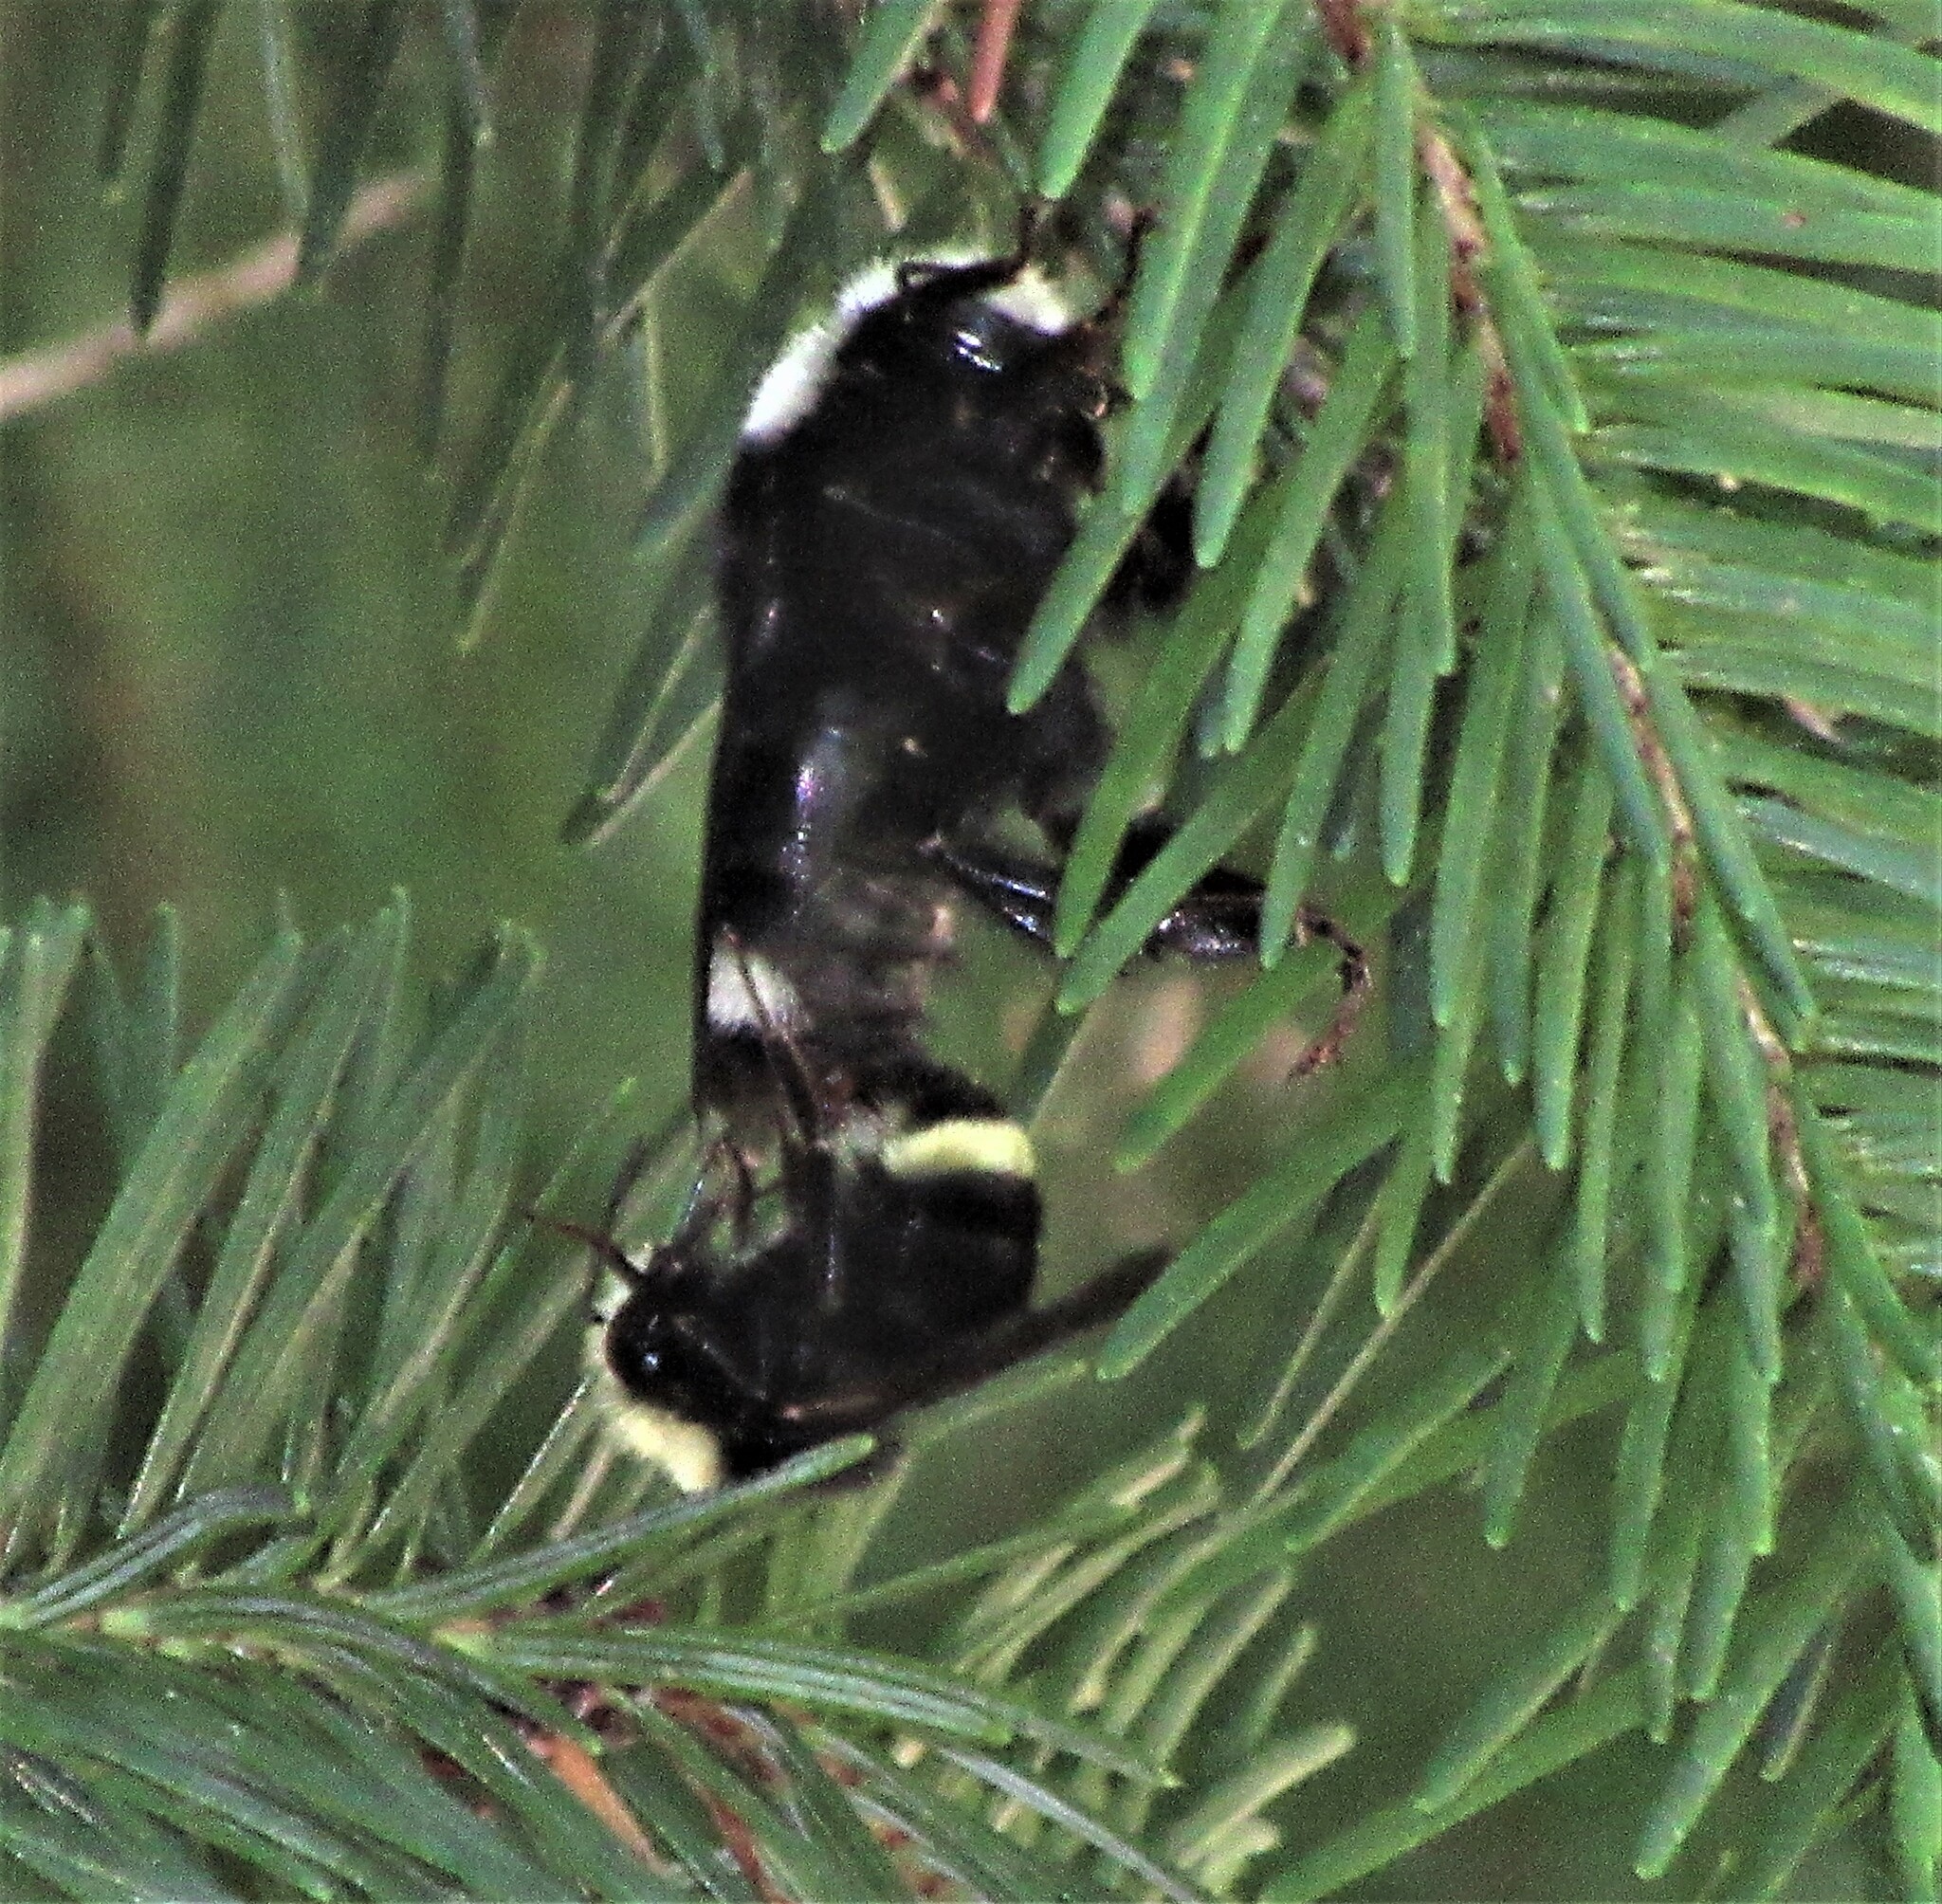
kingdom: Animalia
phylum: Arthropoda
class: Insecta
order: Hymenoptera
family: Apidae
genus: Bombus
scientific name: Bombus vosnesenskii
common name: Vosnesensky bumble bee
